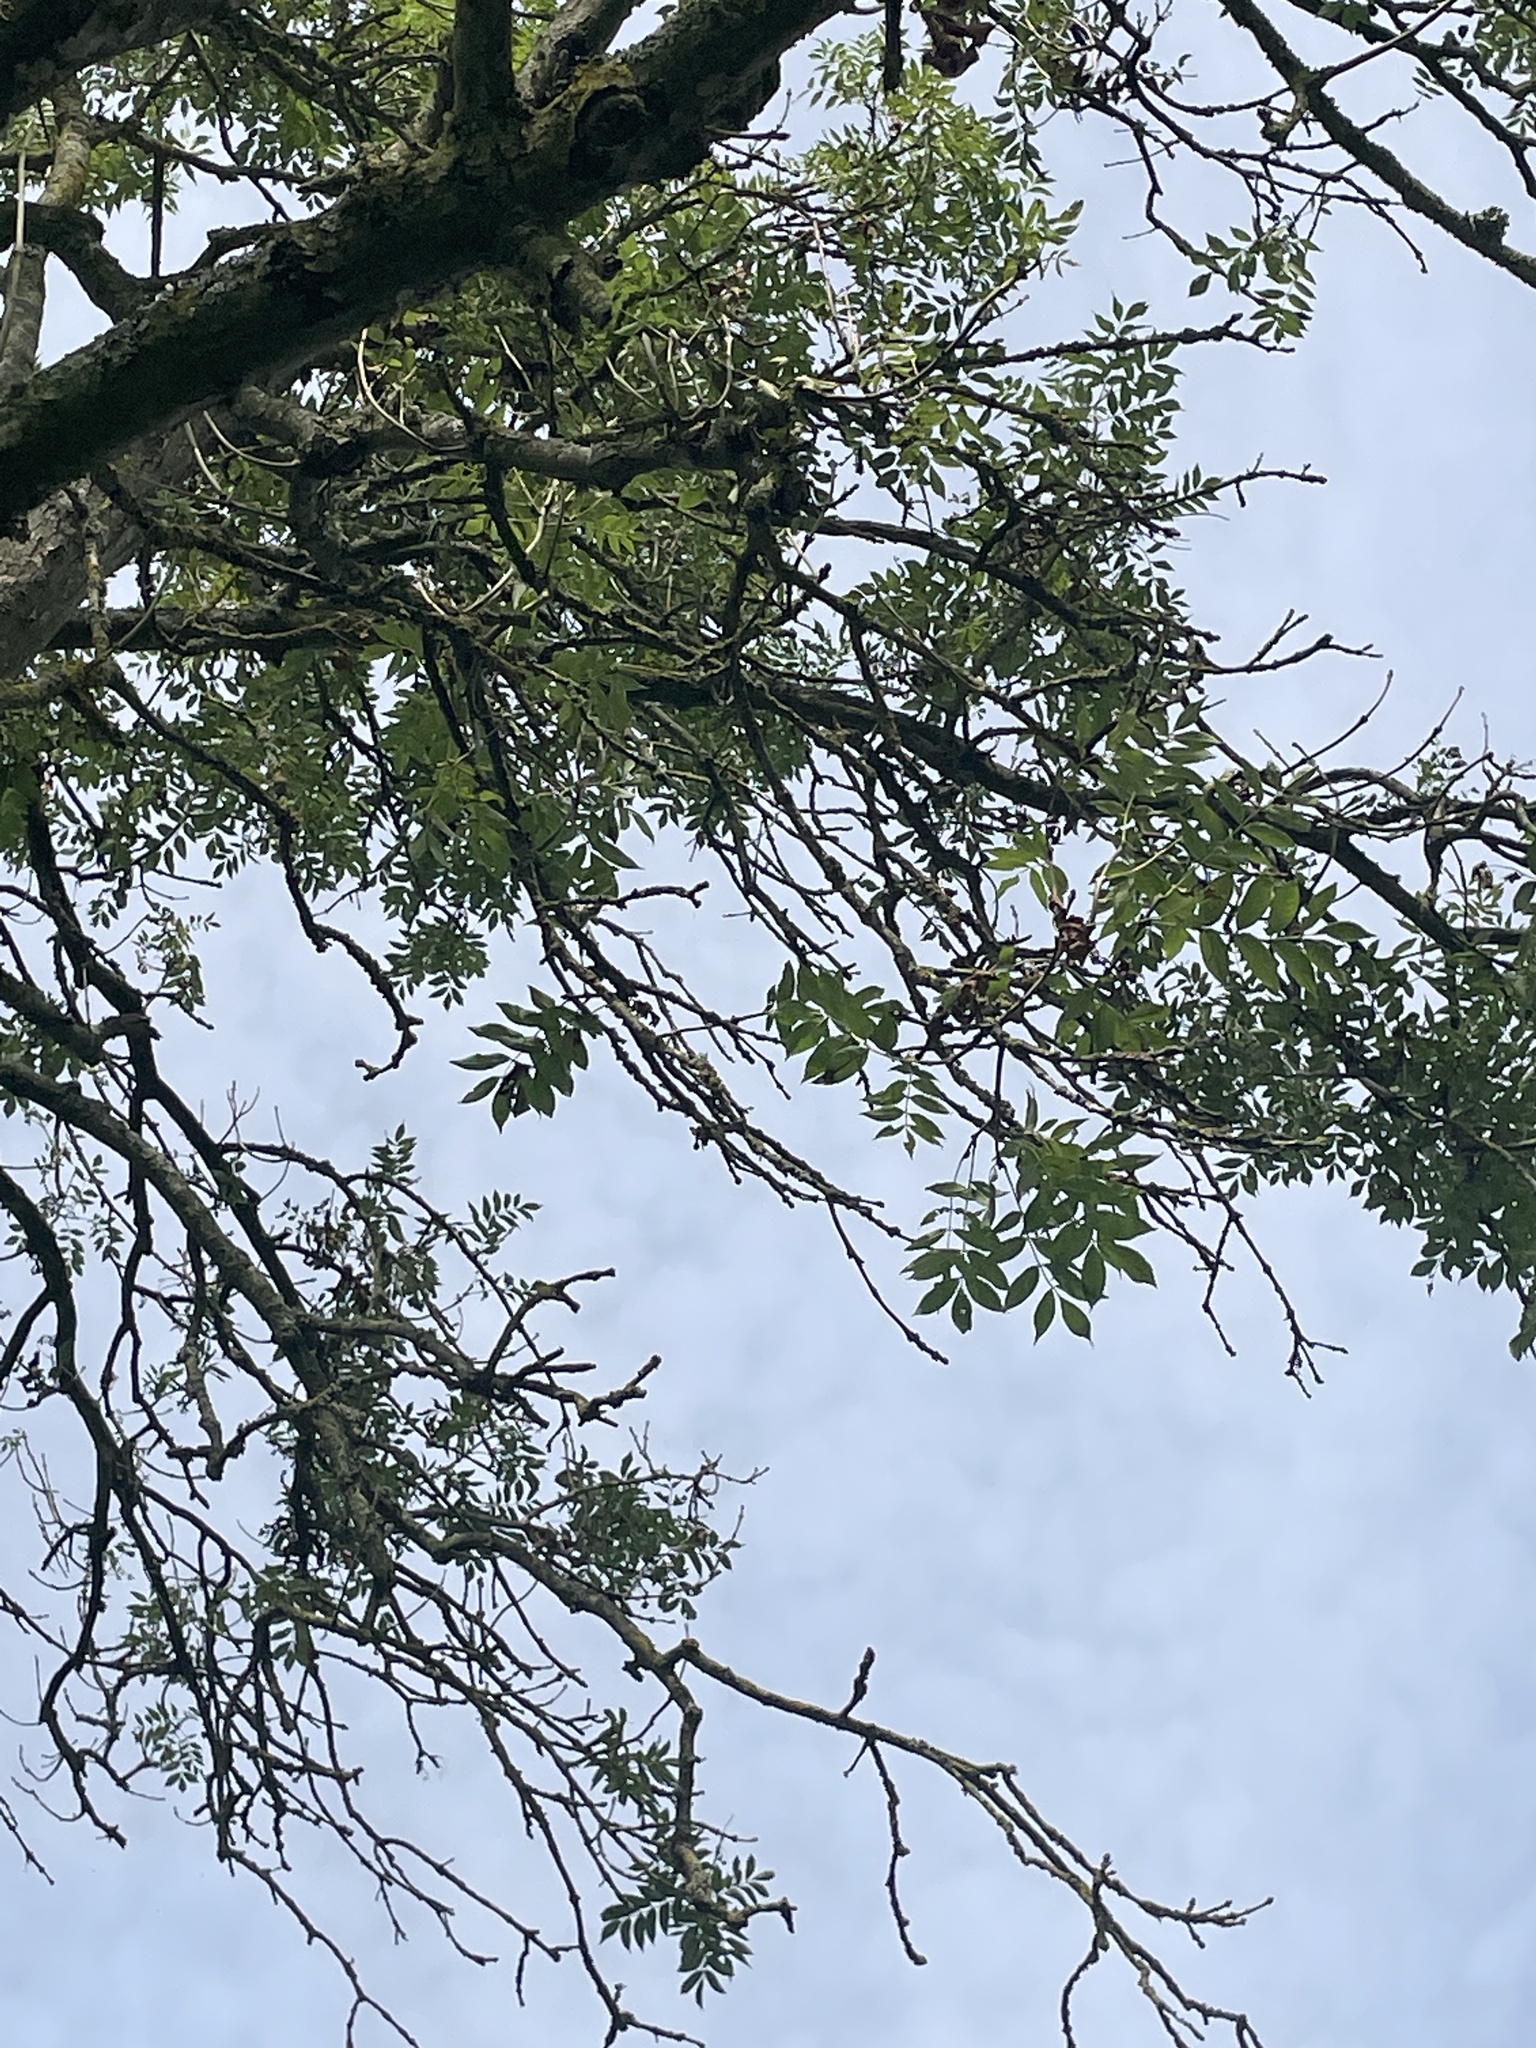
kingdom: Plantae
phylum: Tracheophyta
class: Magnoliopsida
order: Lamiales
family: Oleaceae
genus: Fraxinus
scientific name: Fraxinus excelsior
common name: European ash
